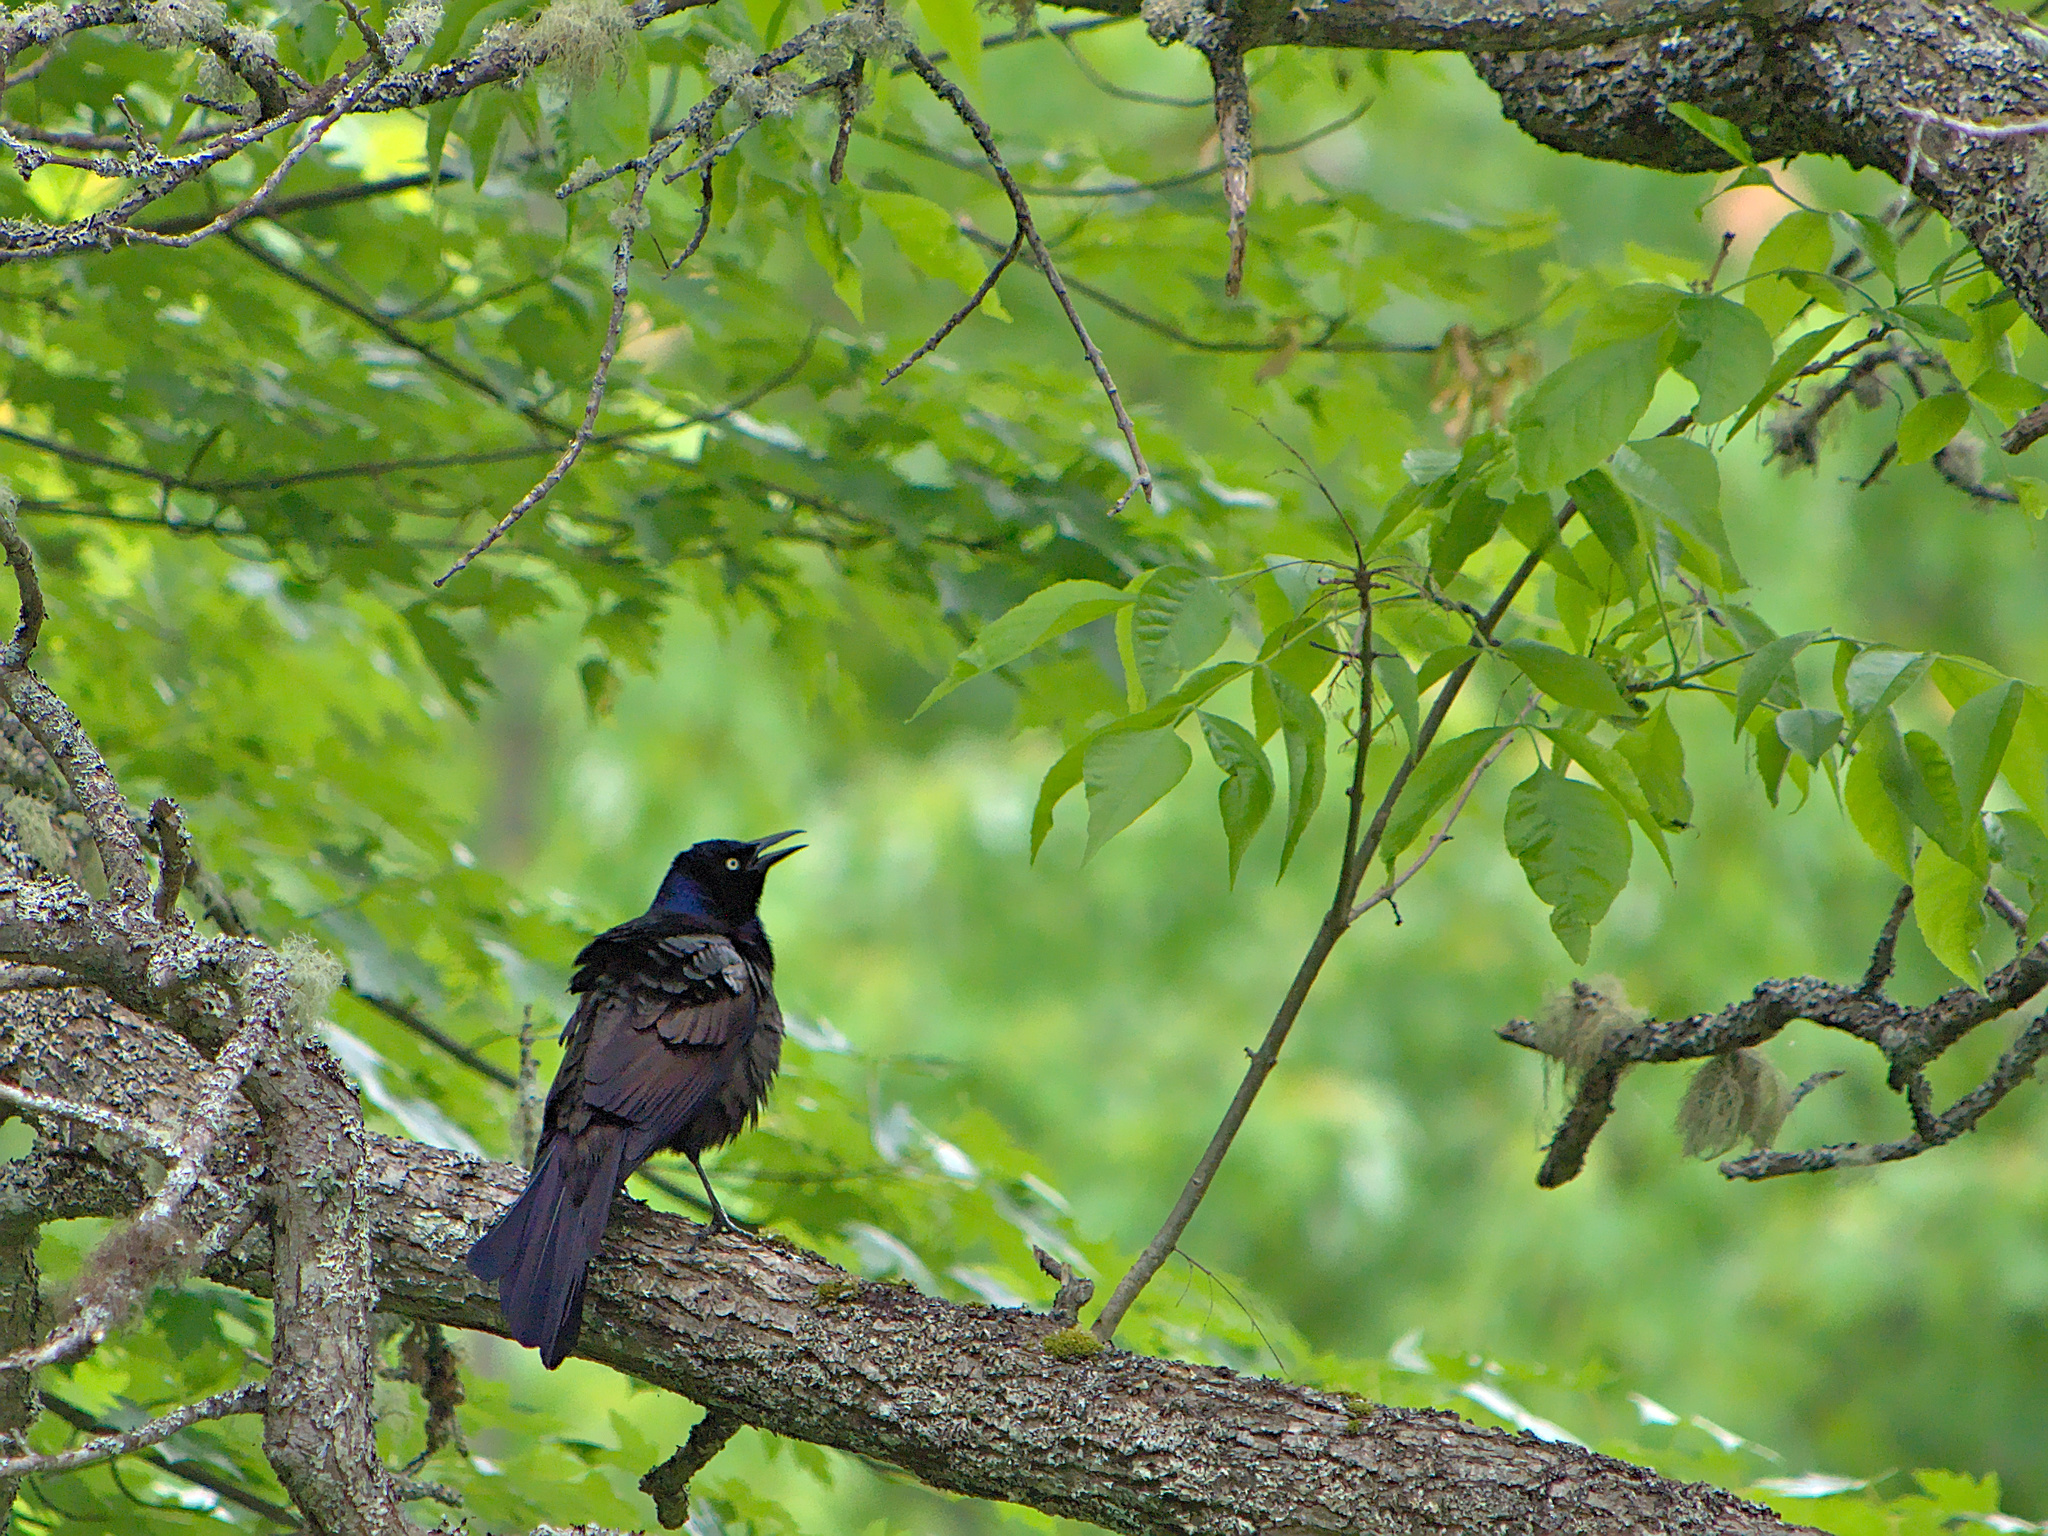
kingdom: Animalia
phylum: Chordata
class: Aves
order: Passeriformes
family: Icteridae
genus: Quiscalus
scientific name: Quiscalus quiscula
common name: Common grackle
